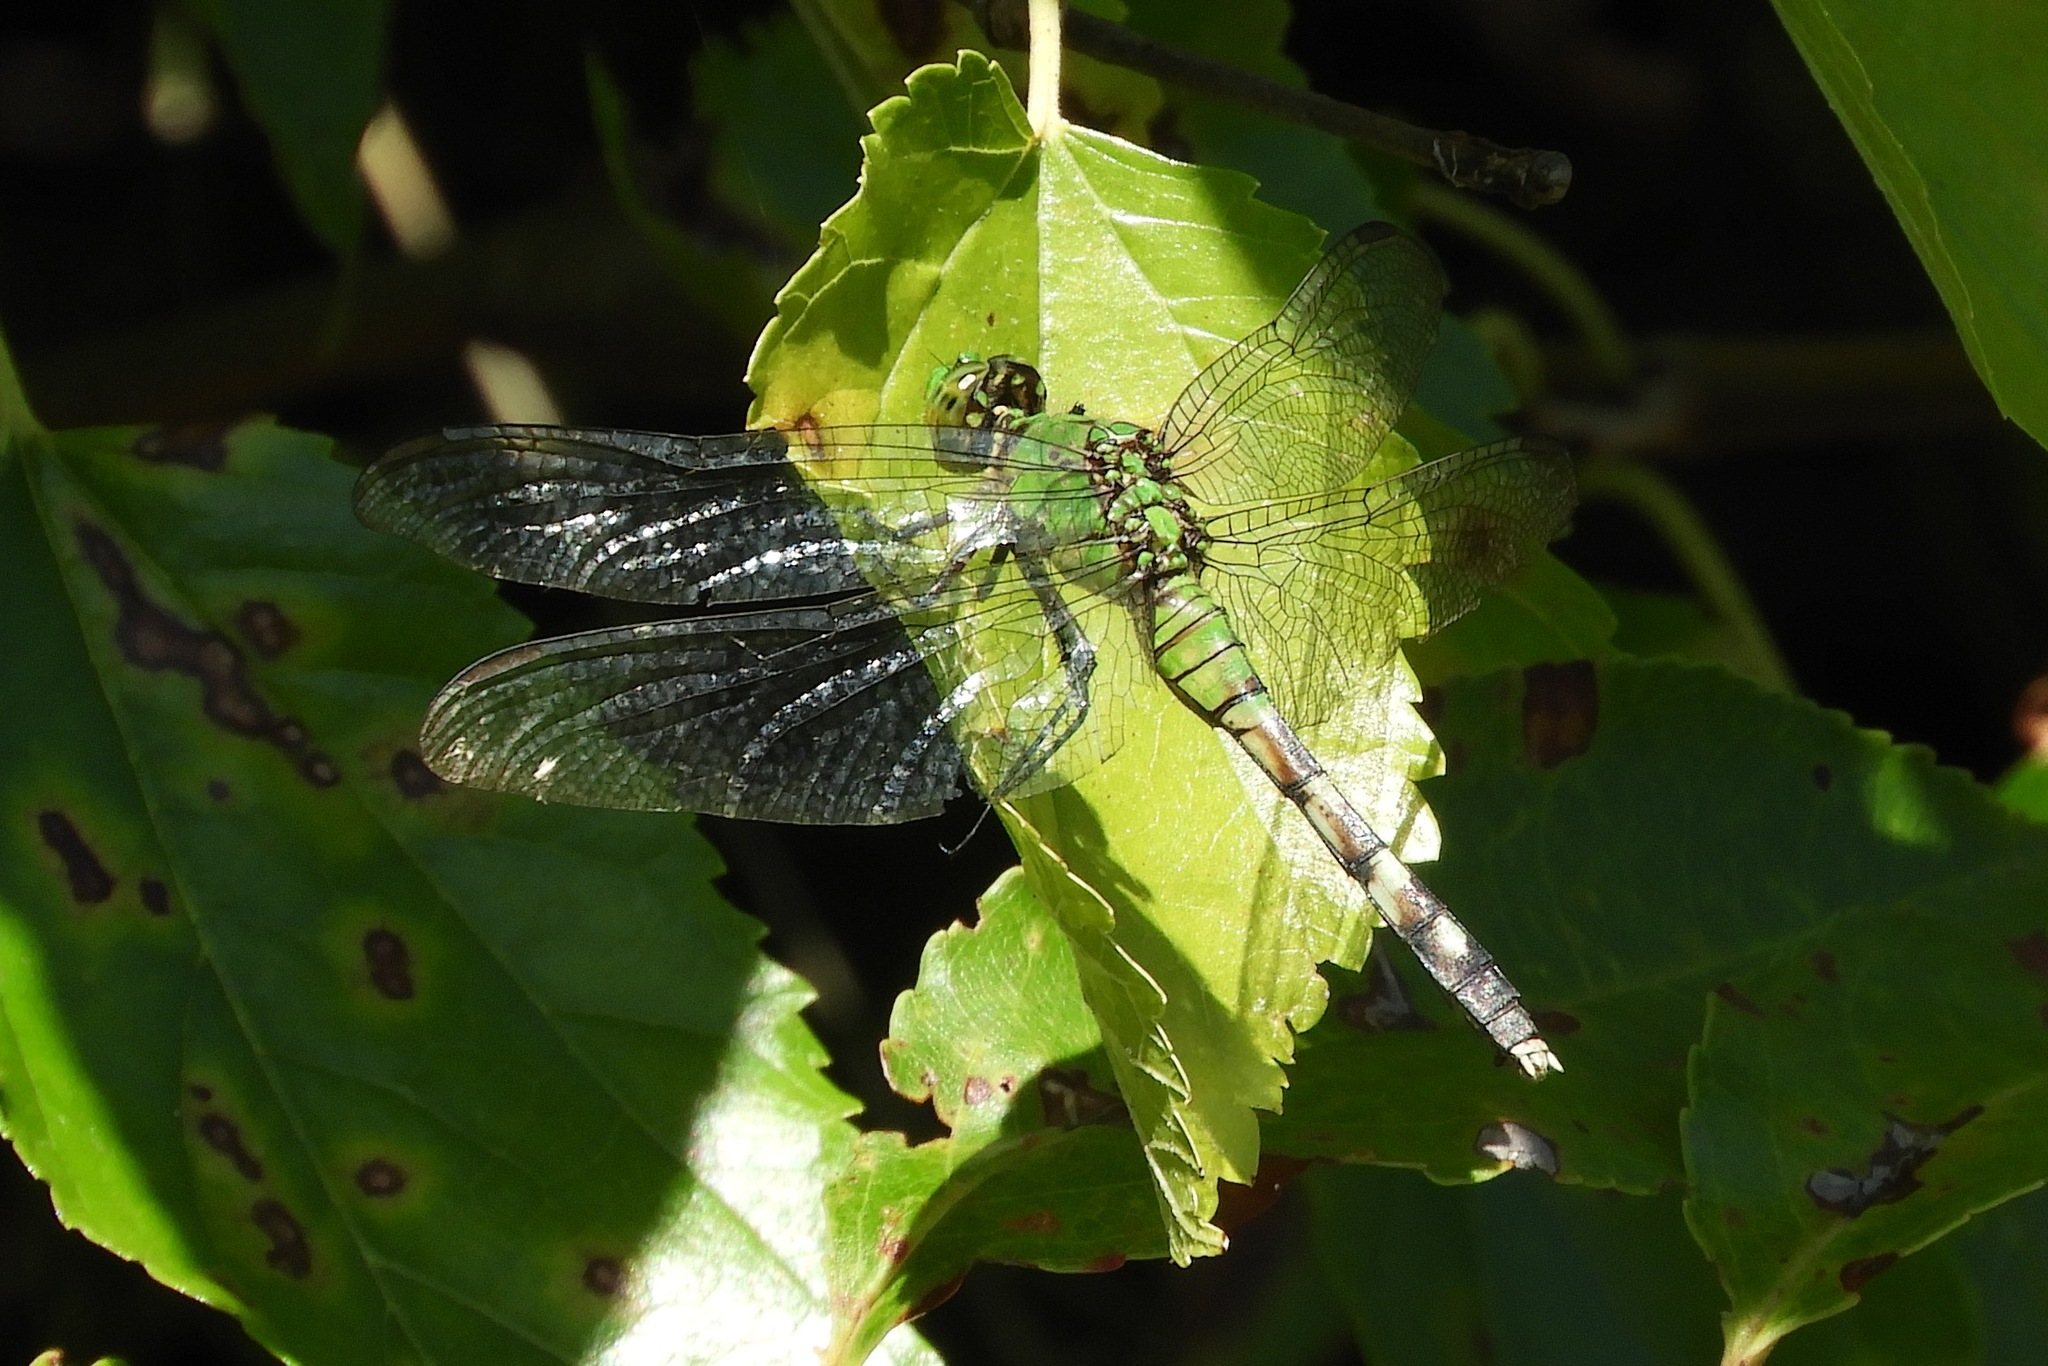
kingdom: Animalia
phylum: Arthropoda
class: Insecta
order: Odonata
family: Libellulidae
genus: Erythemis
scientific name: Erythemis simplicicollis
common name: Eastern pondhawk
